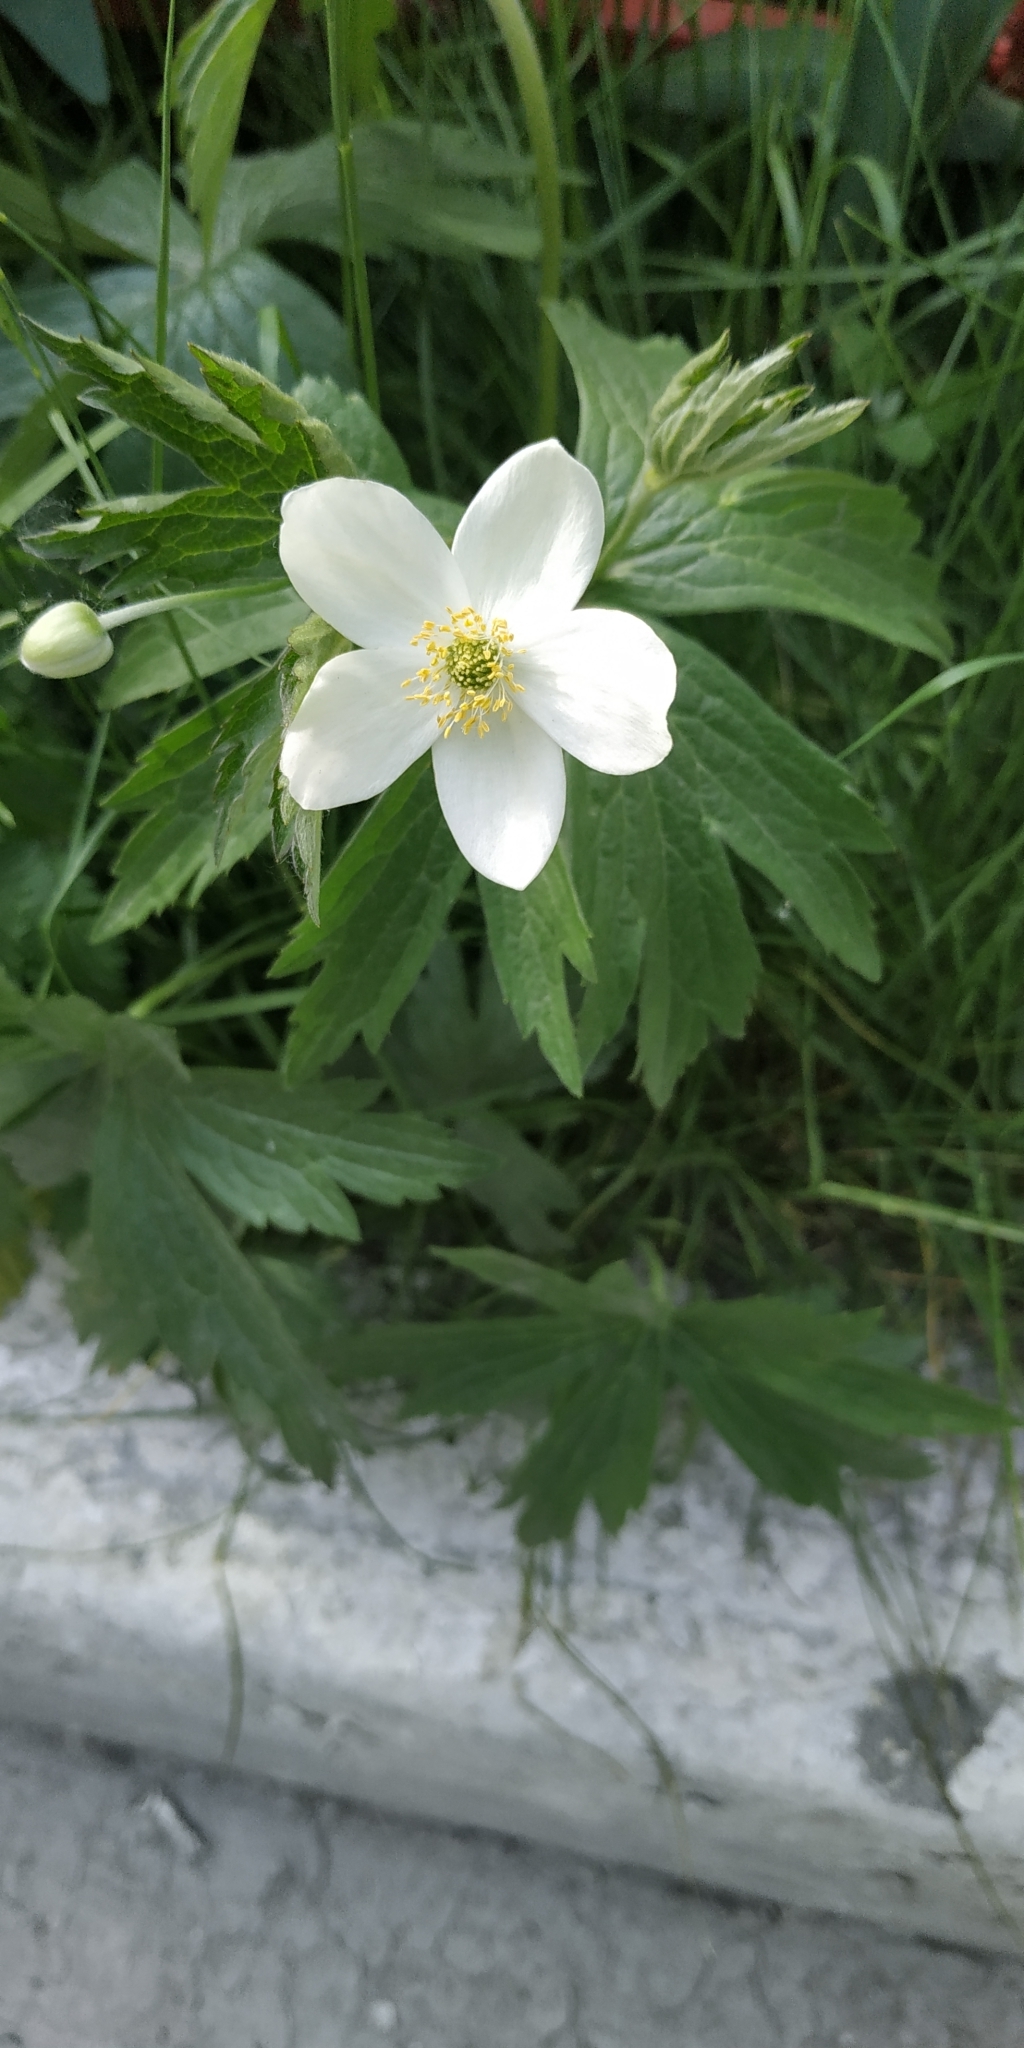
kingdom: Plantae
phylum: Tracheophyta
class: Magnoliopsida
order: Ranunculales
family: Ranunculaceae
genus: Anemonastrum
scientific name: Anemonastrum canadense
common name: Canada anemone
